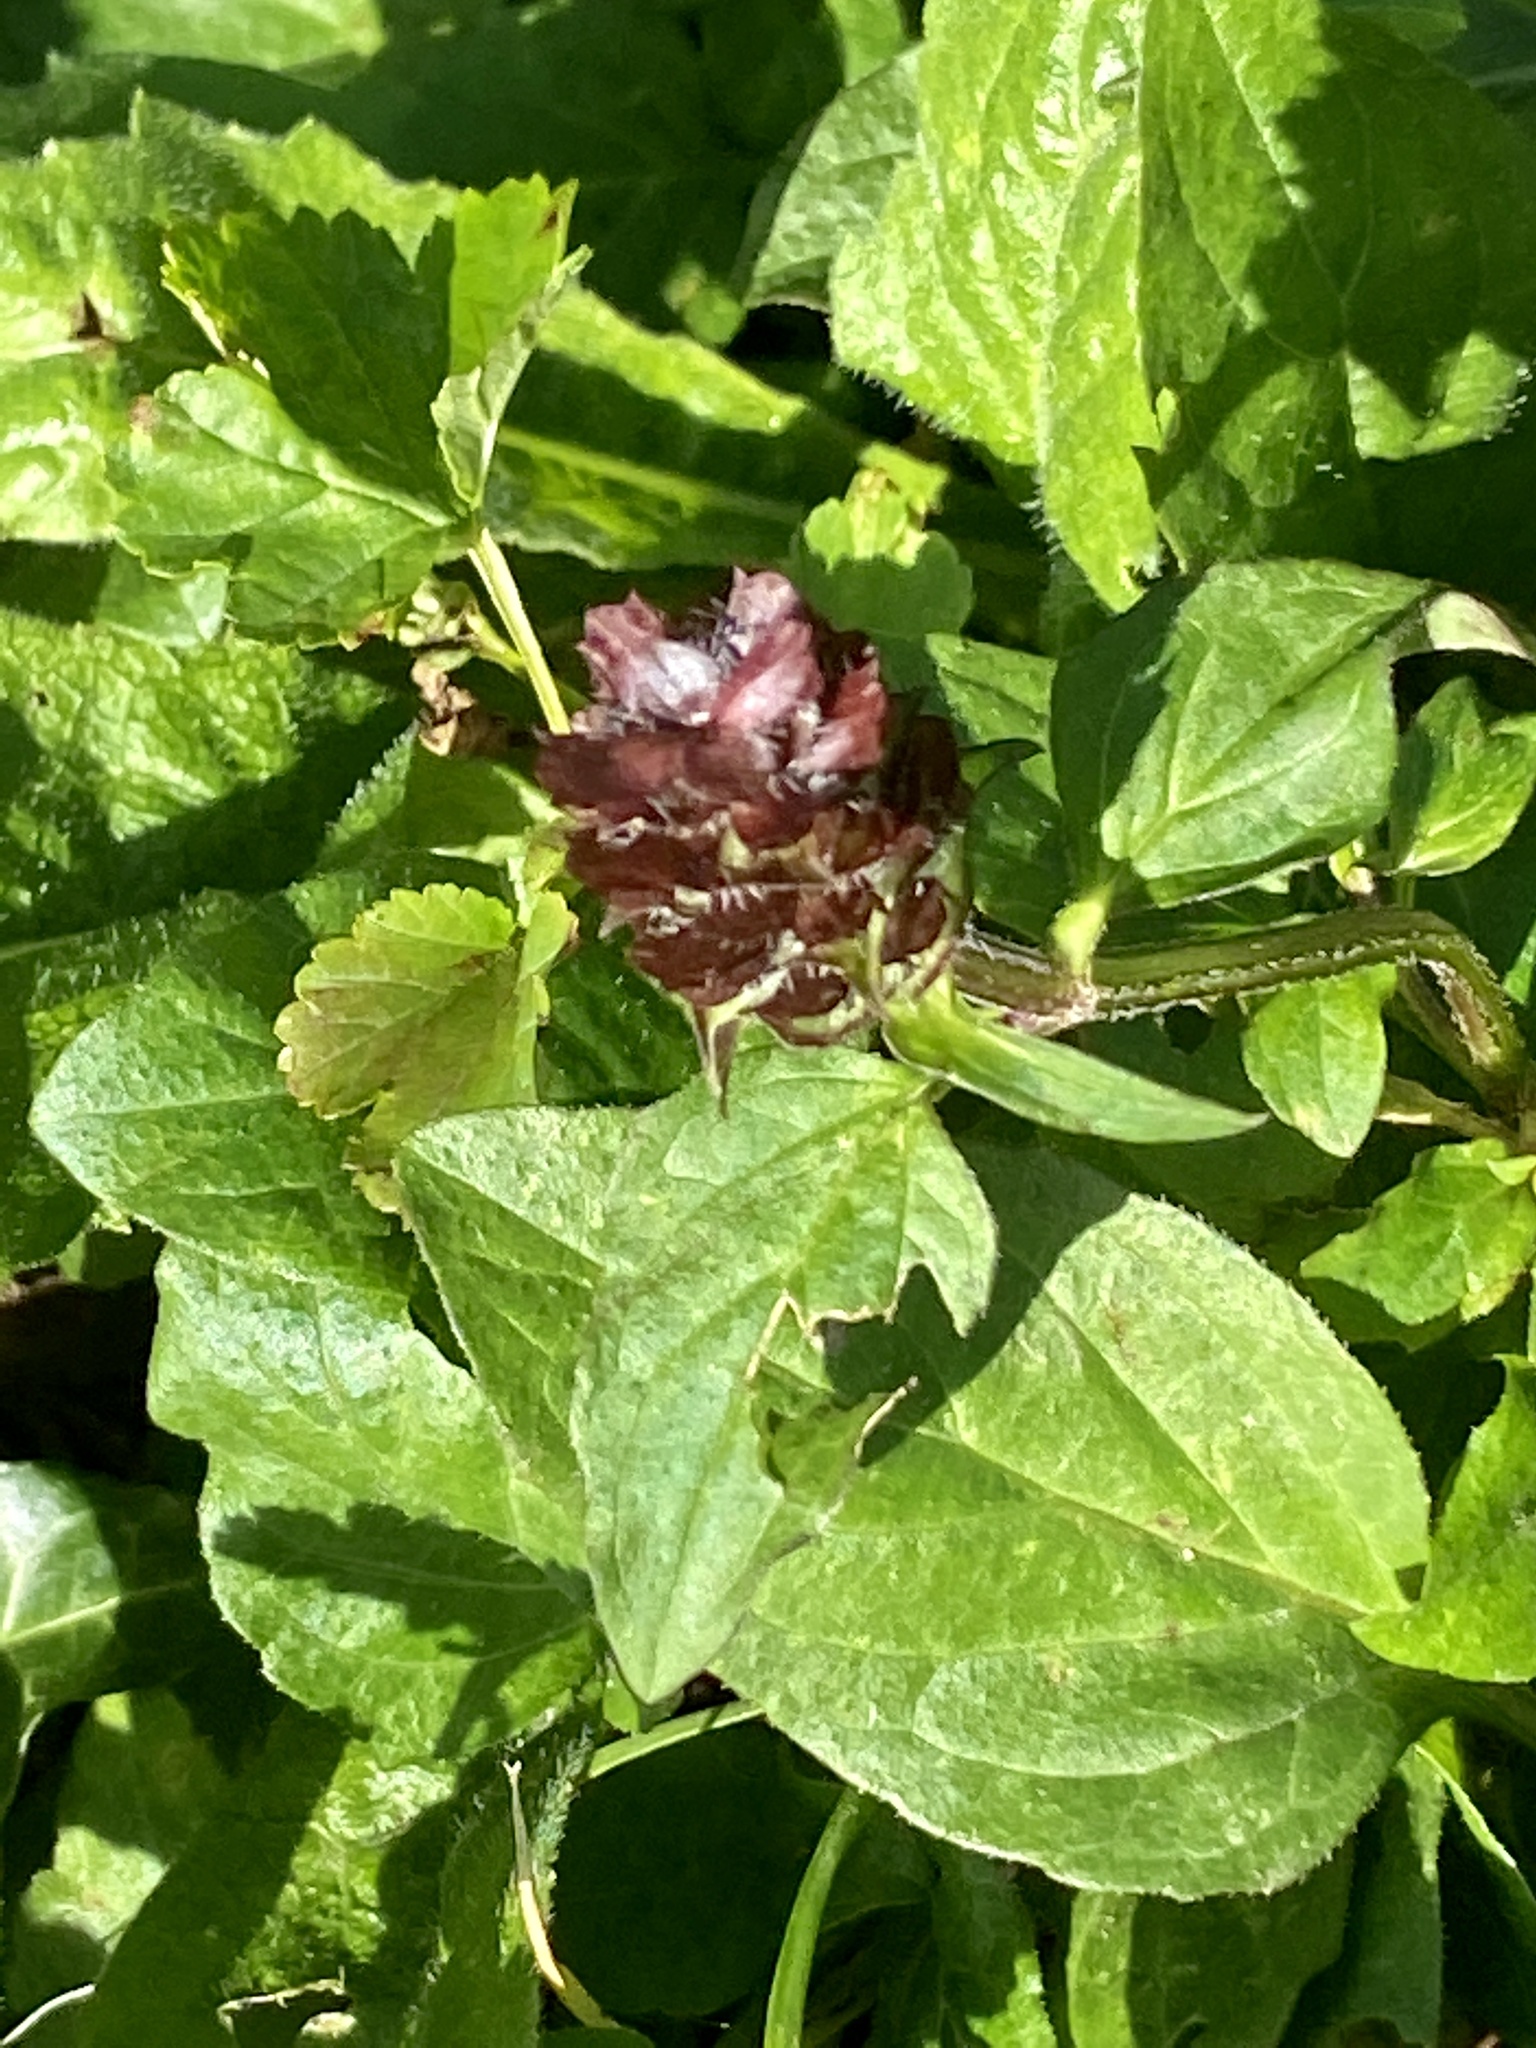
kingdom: Plantae
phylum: Tracheophyta
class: Magnoliopsida
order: Lamiales
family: Lamiaceae
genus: Prunella
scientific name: Prunella vulgaris
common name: Heal-all
